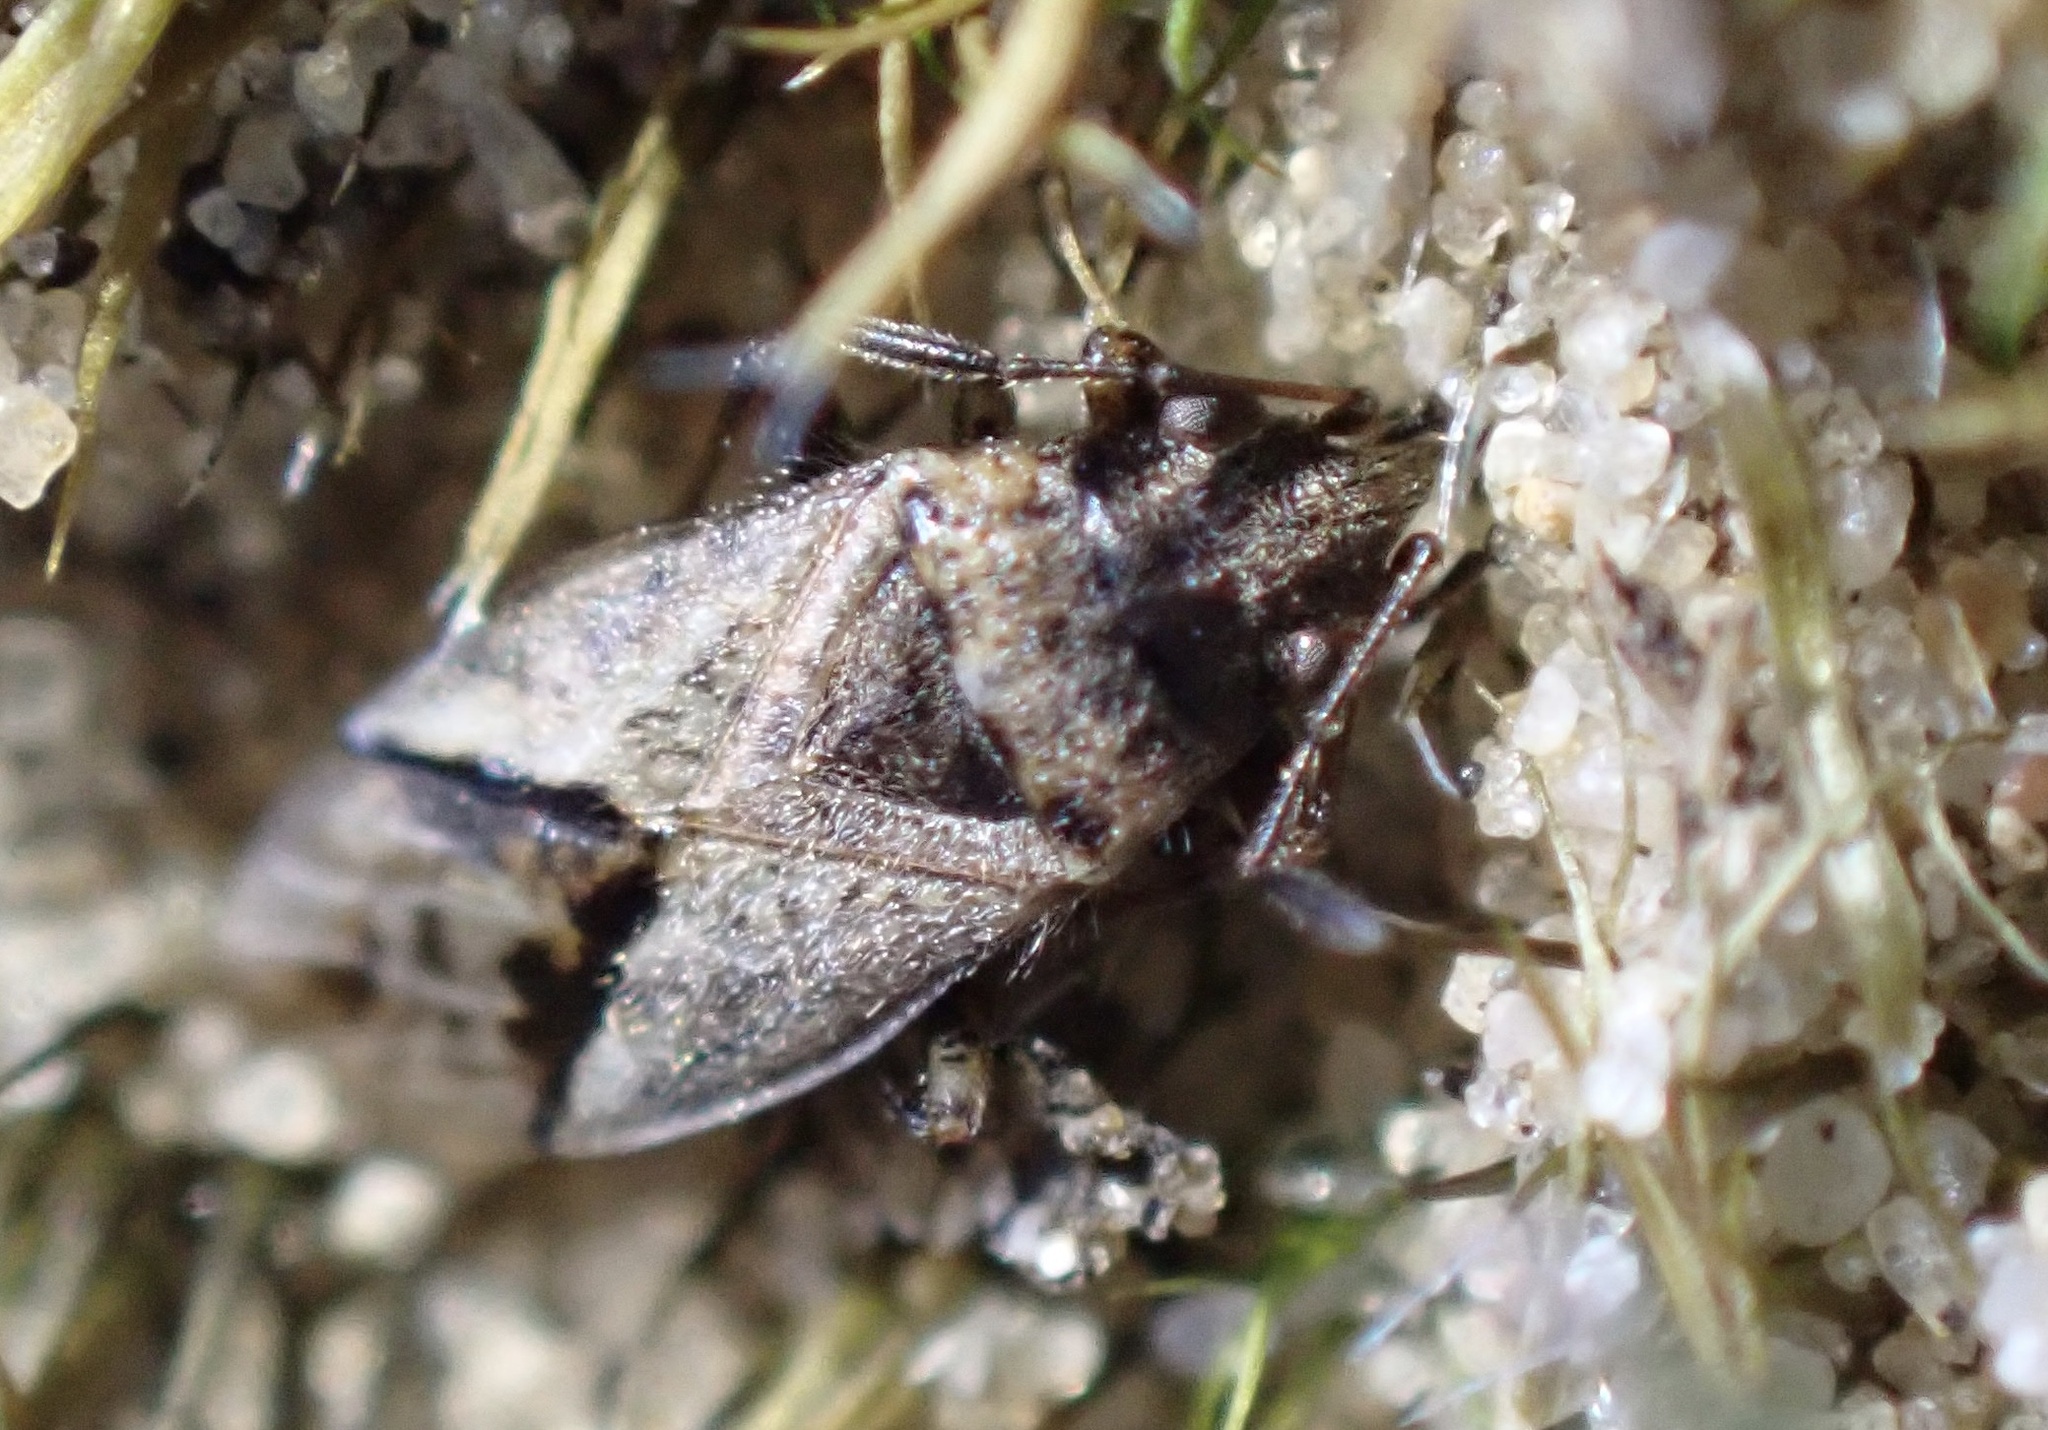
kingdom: Animalia
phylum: Arthropoda
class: Insecta
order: Hemiptera
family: Lygaeidae
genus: Nysius
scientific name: Nysius huttoni
